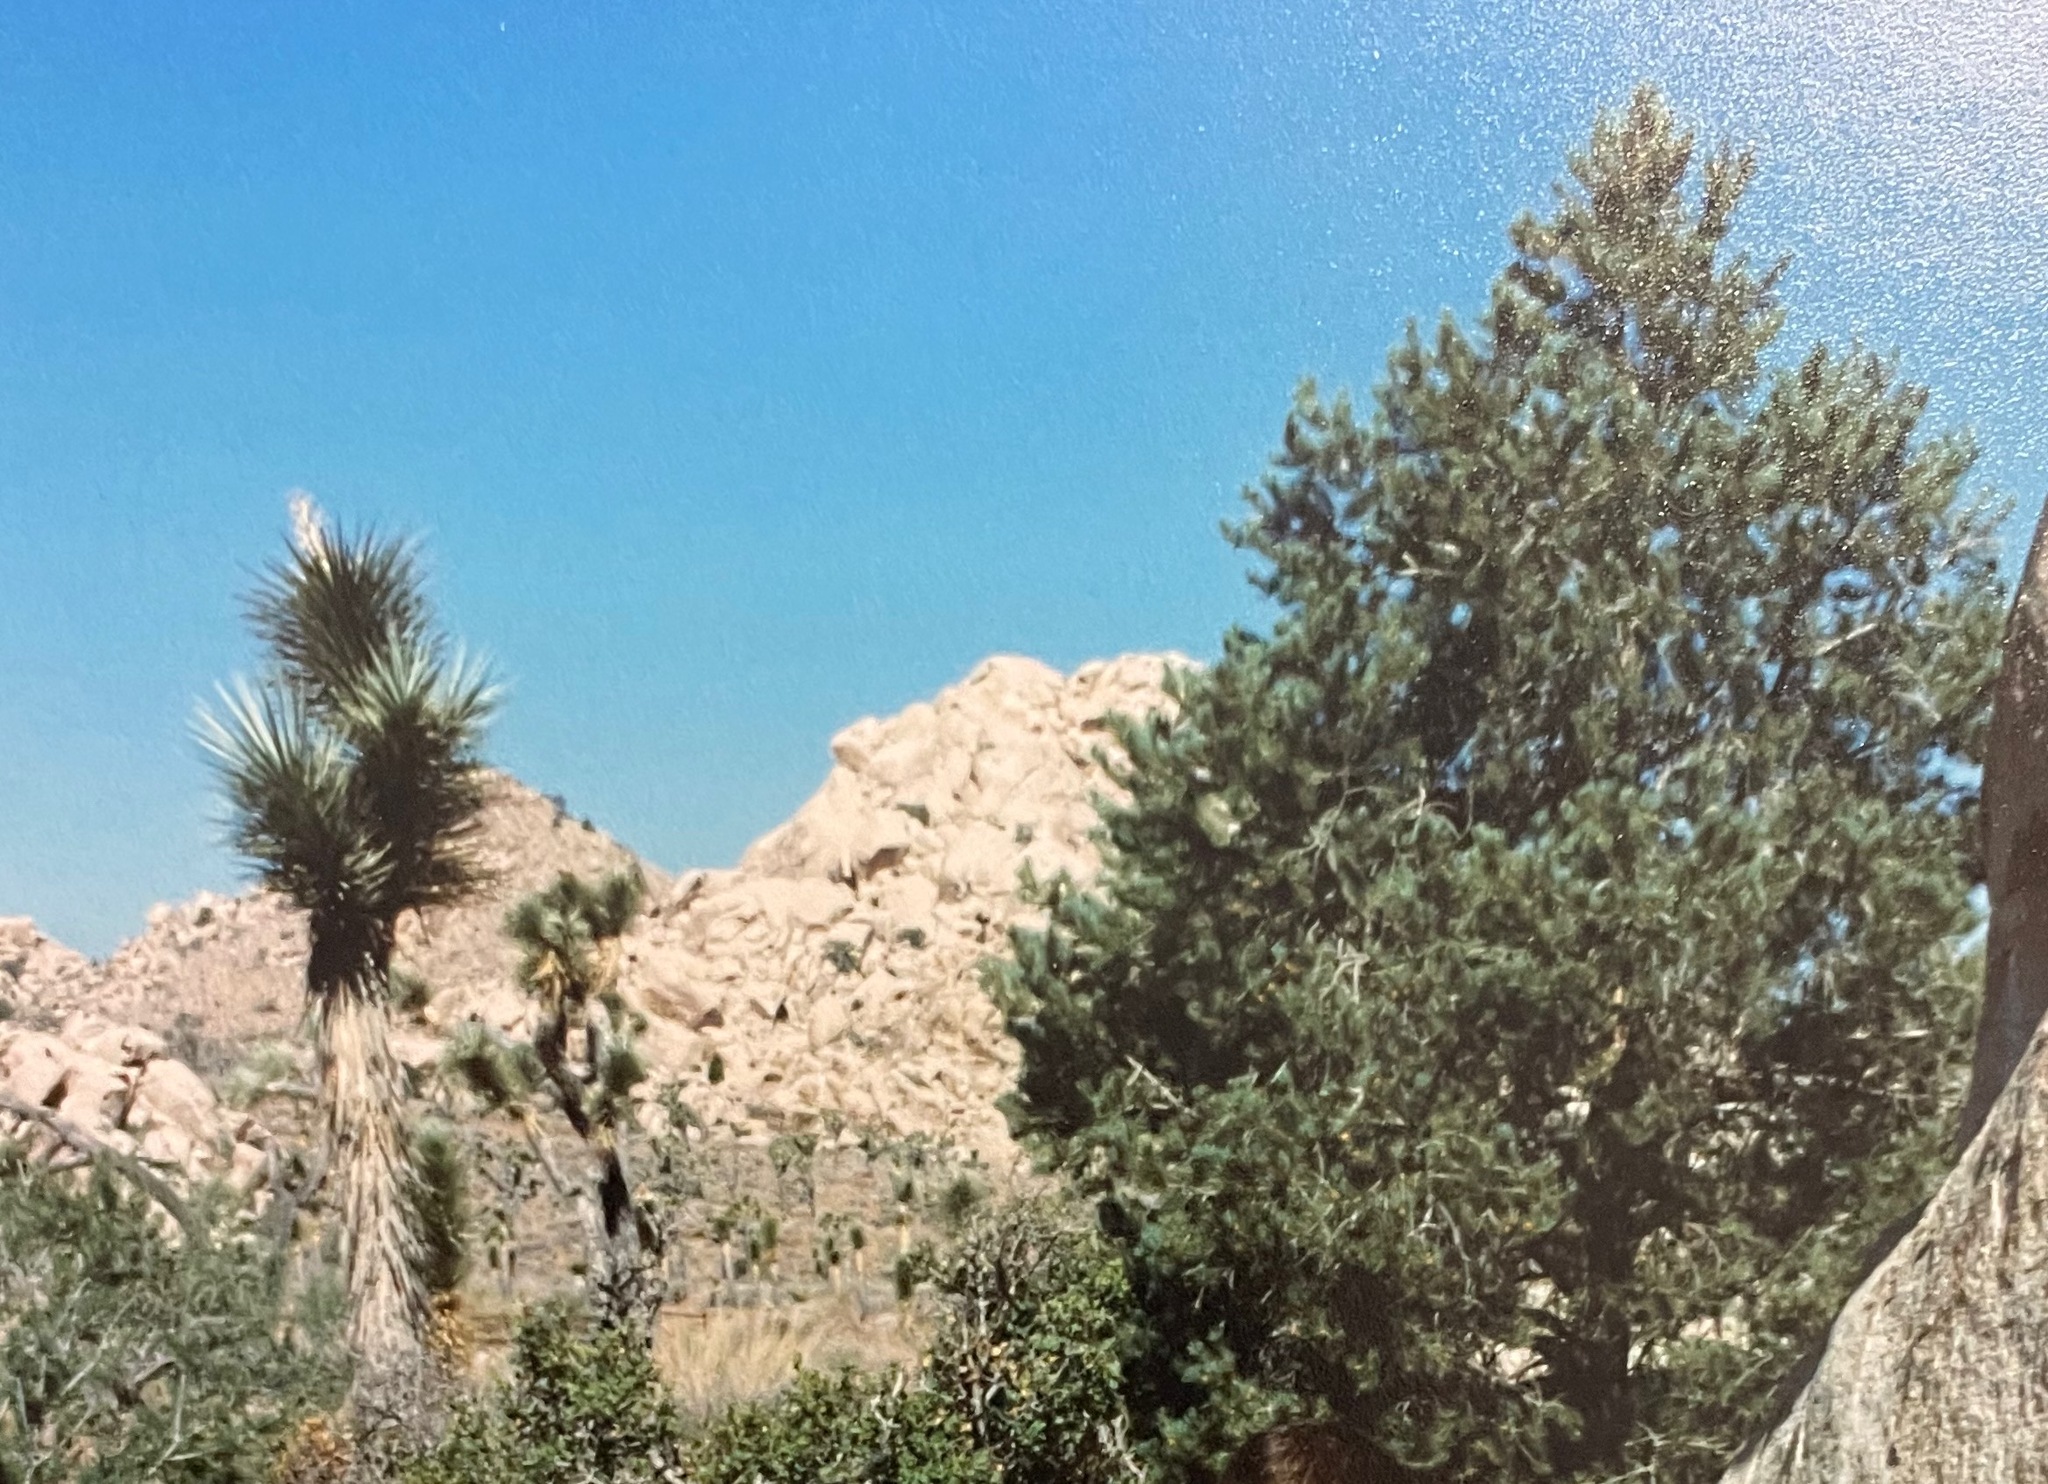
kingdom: Plantae
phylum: Tracheophyta
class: Liliopsida
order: Asparagales
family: Asparagaceae
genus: Yucca
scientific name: Yucca brevifolia
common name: Joshua tree
